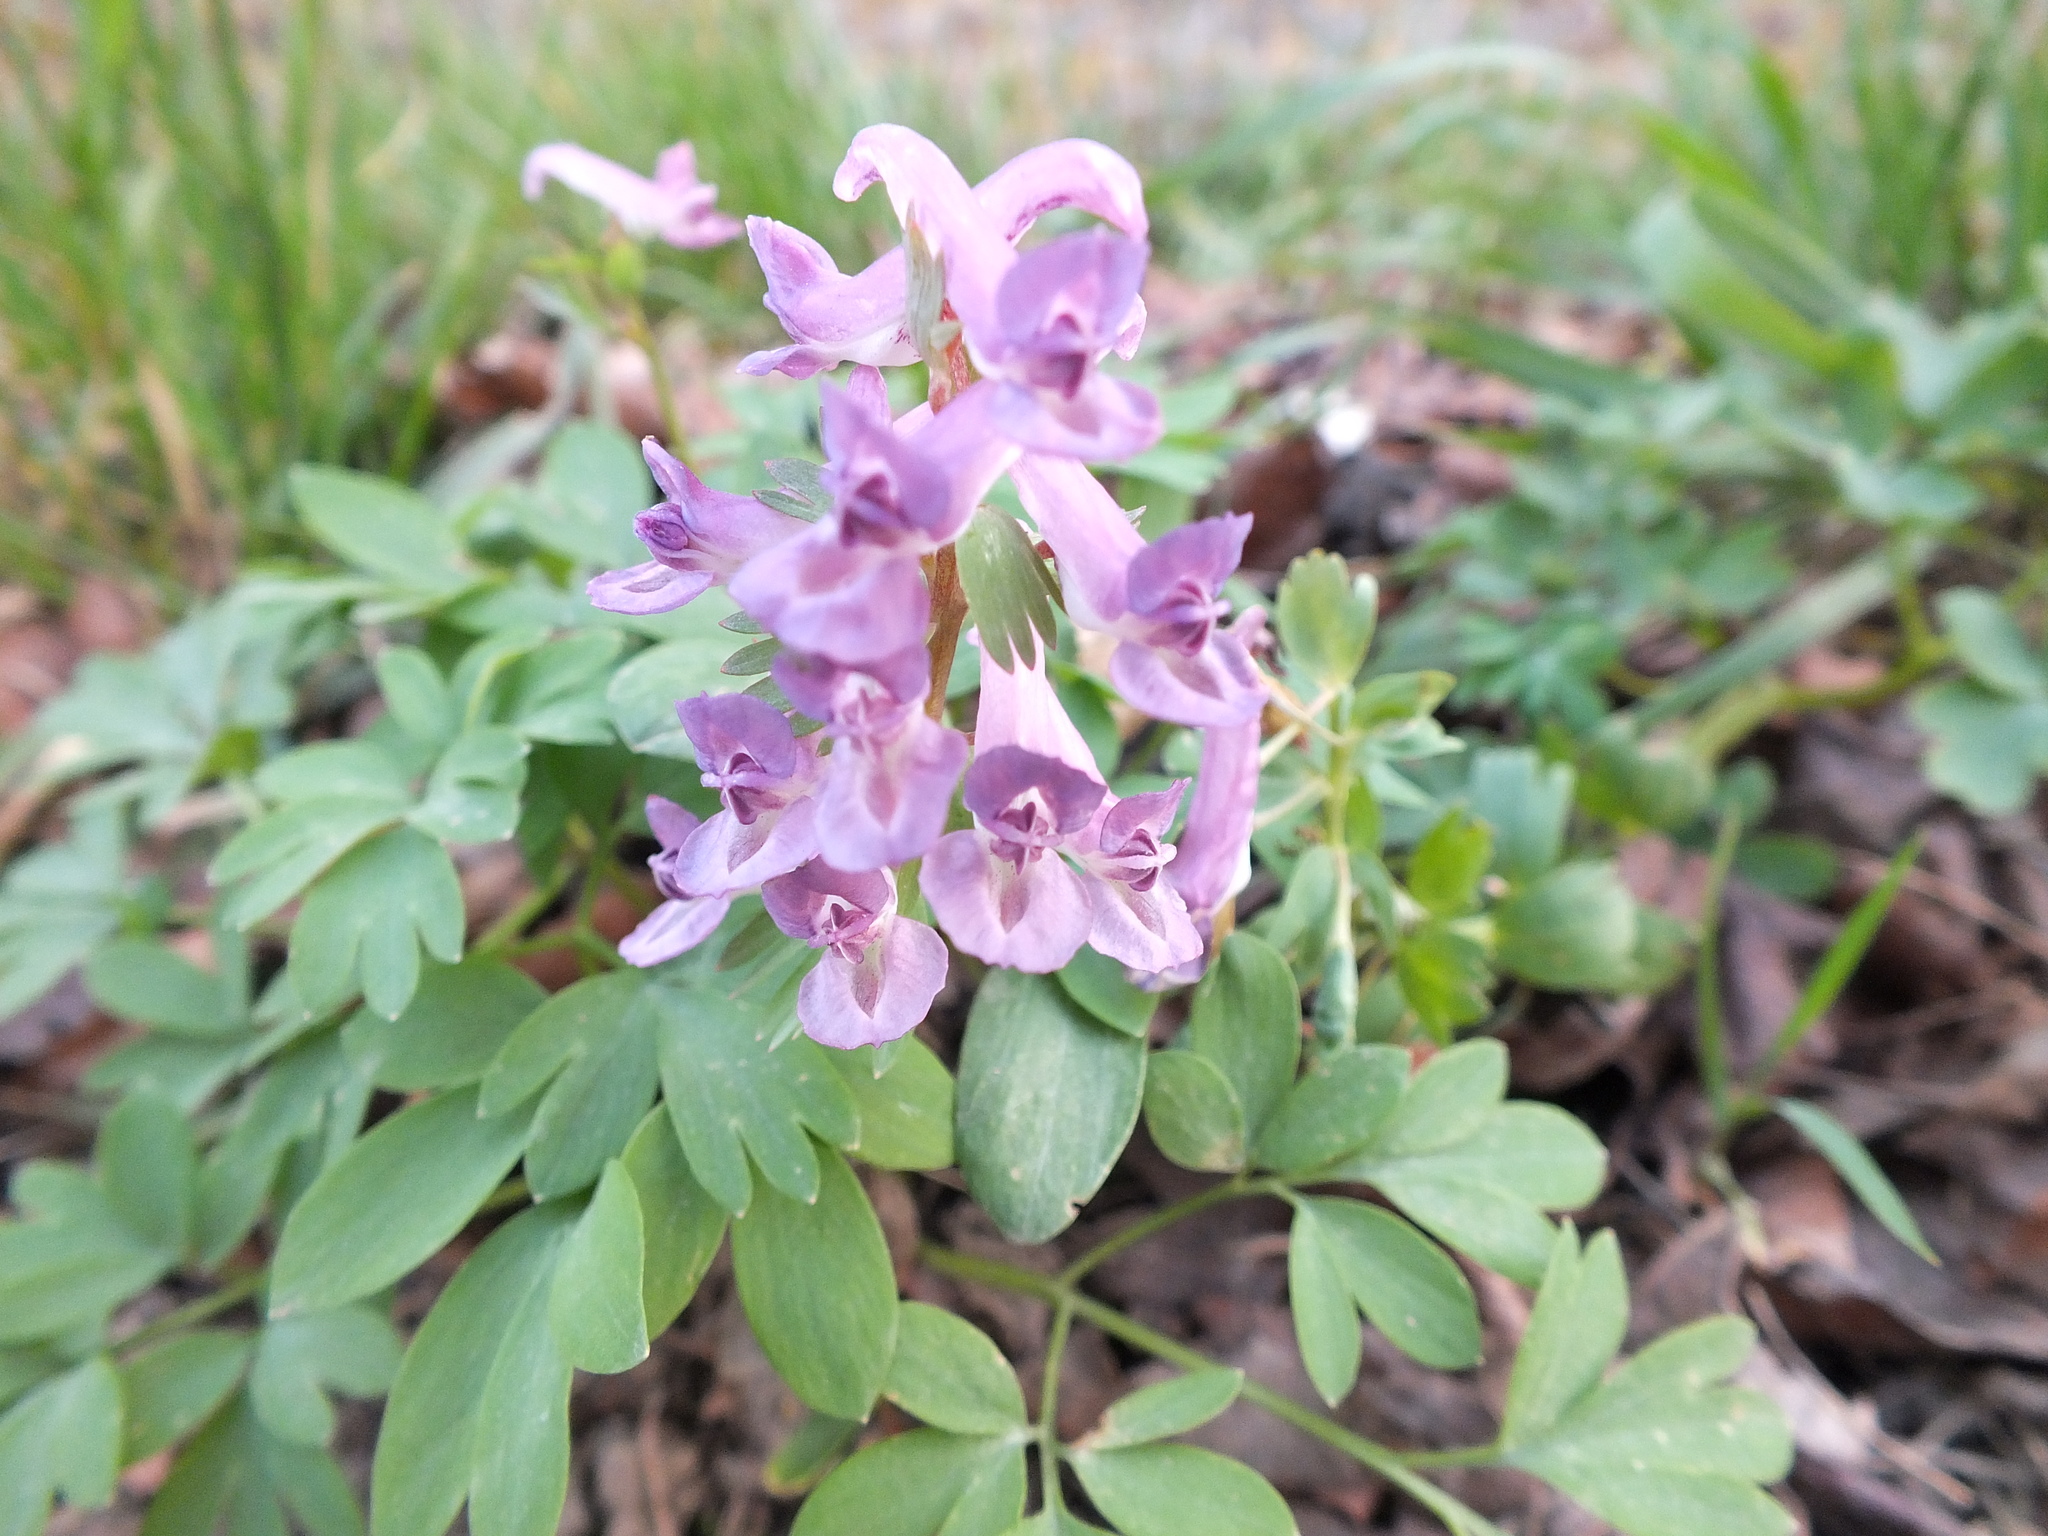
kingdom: Plantae
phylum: Tracheophyta
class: Magnoliopsida
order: Ranunculales
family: Papaveraceae
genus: Corydalis
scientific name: Corydalis solida
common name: Bird-in-a-bush
